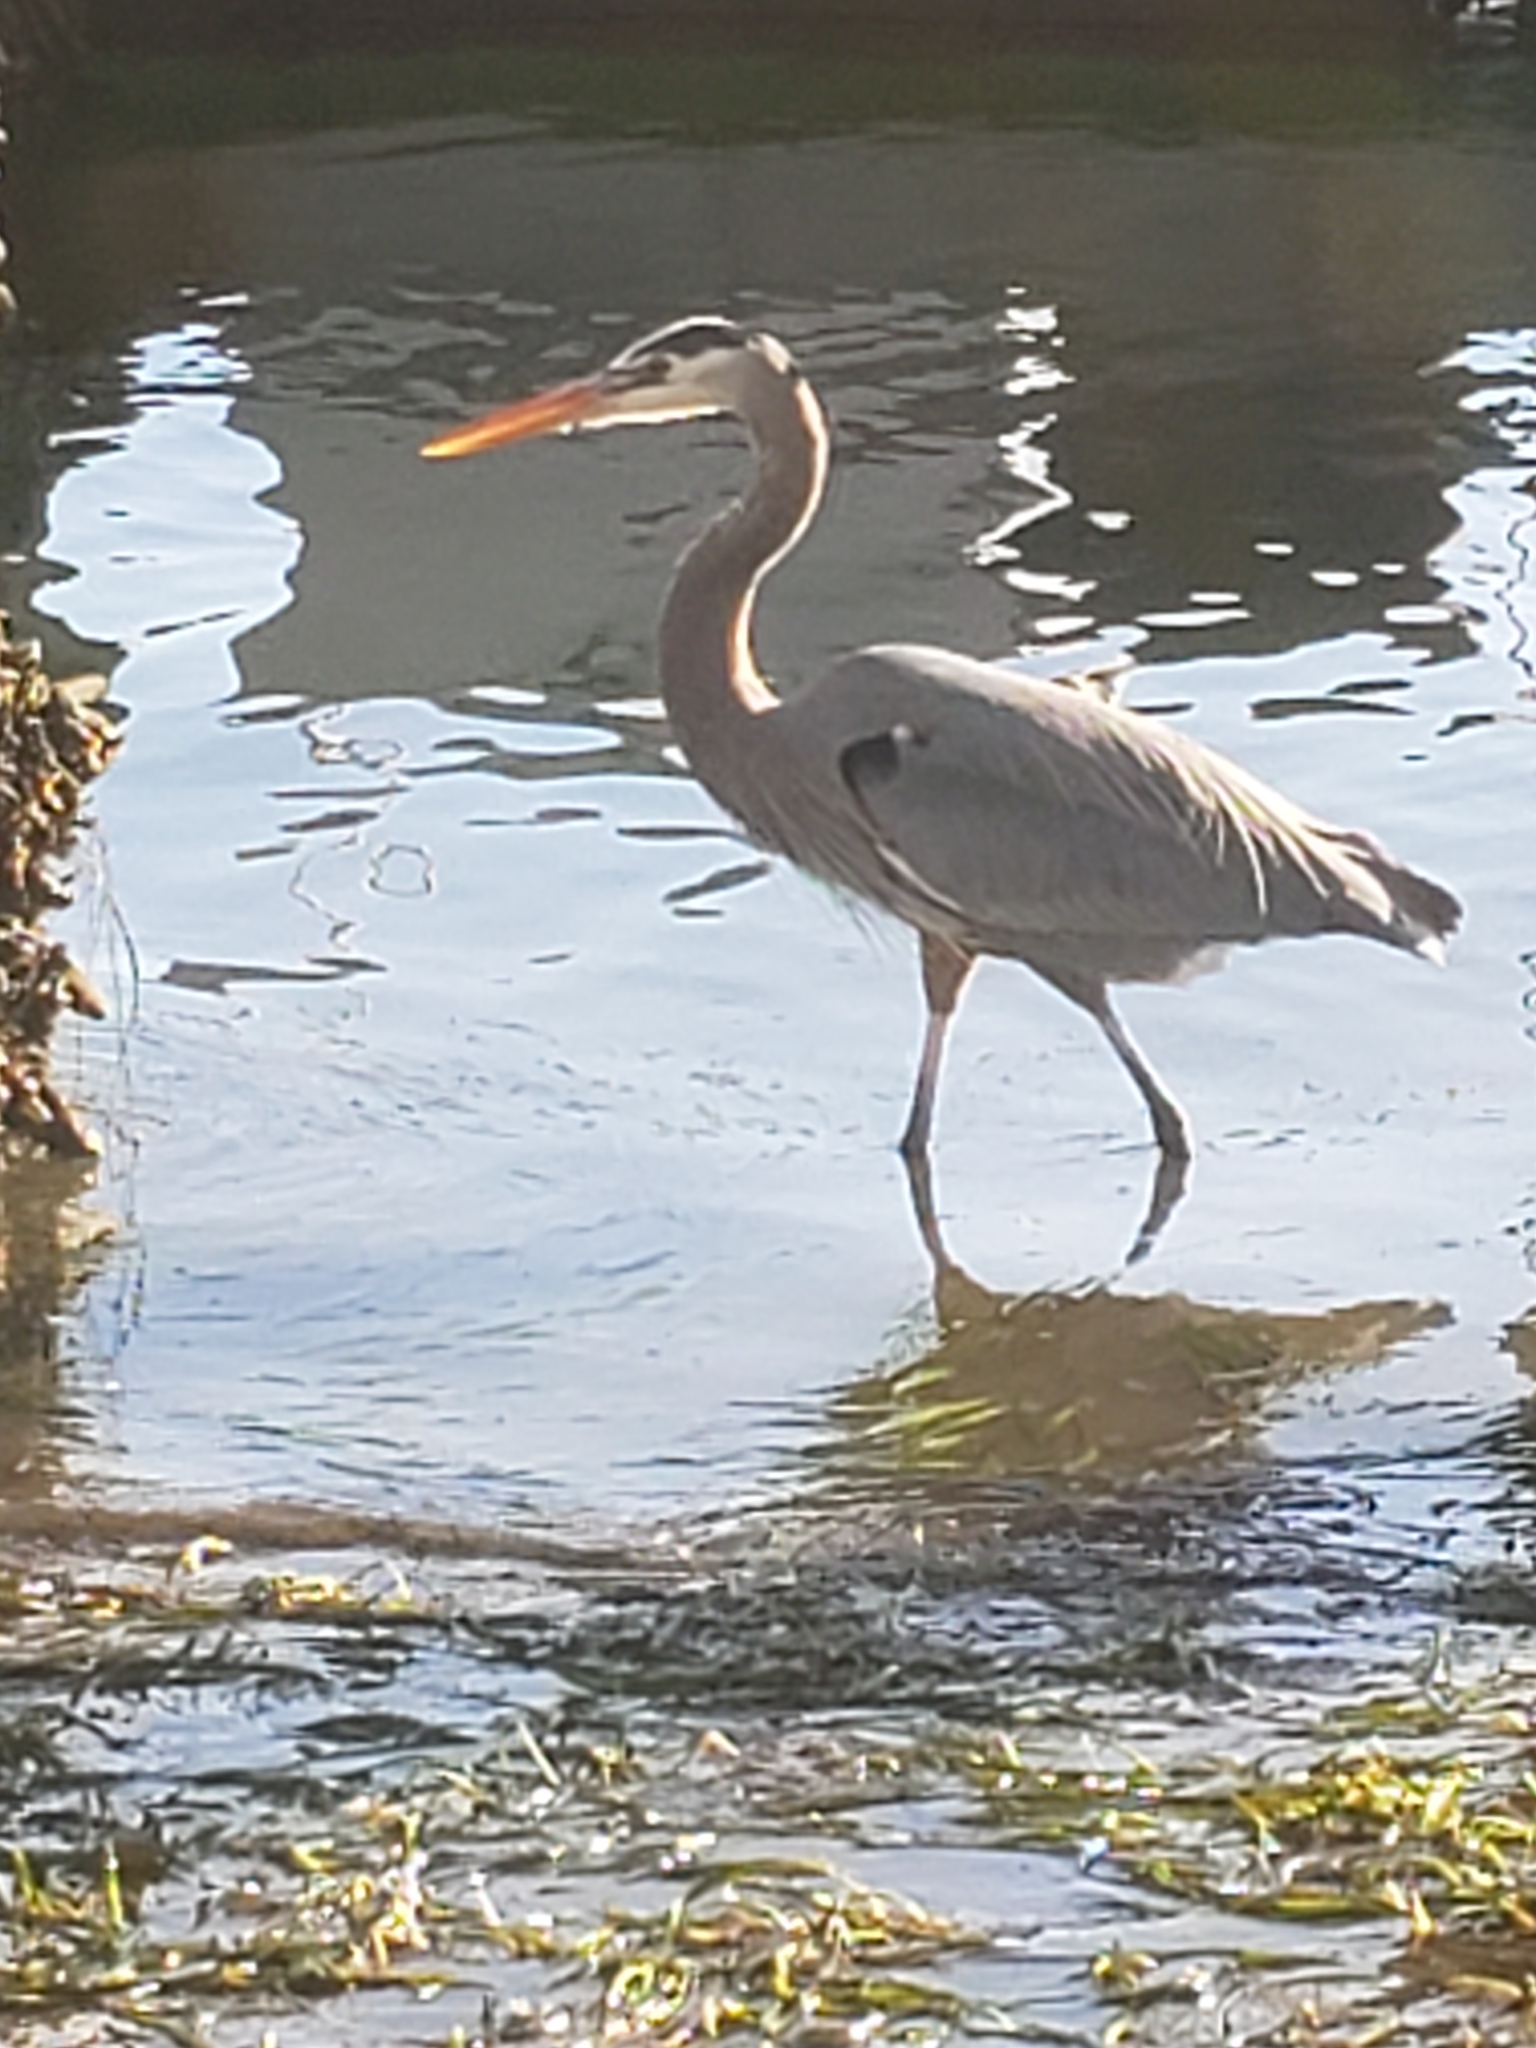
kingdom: Animalia
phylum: Chordata
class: Aves
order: Pelecaniformes
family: Ardeidae
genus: Ardea
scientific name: Ardea herodias
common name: Great blue heron
